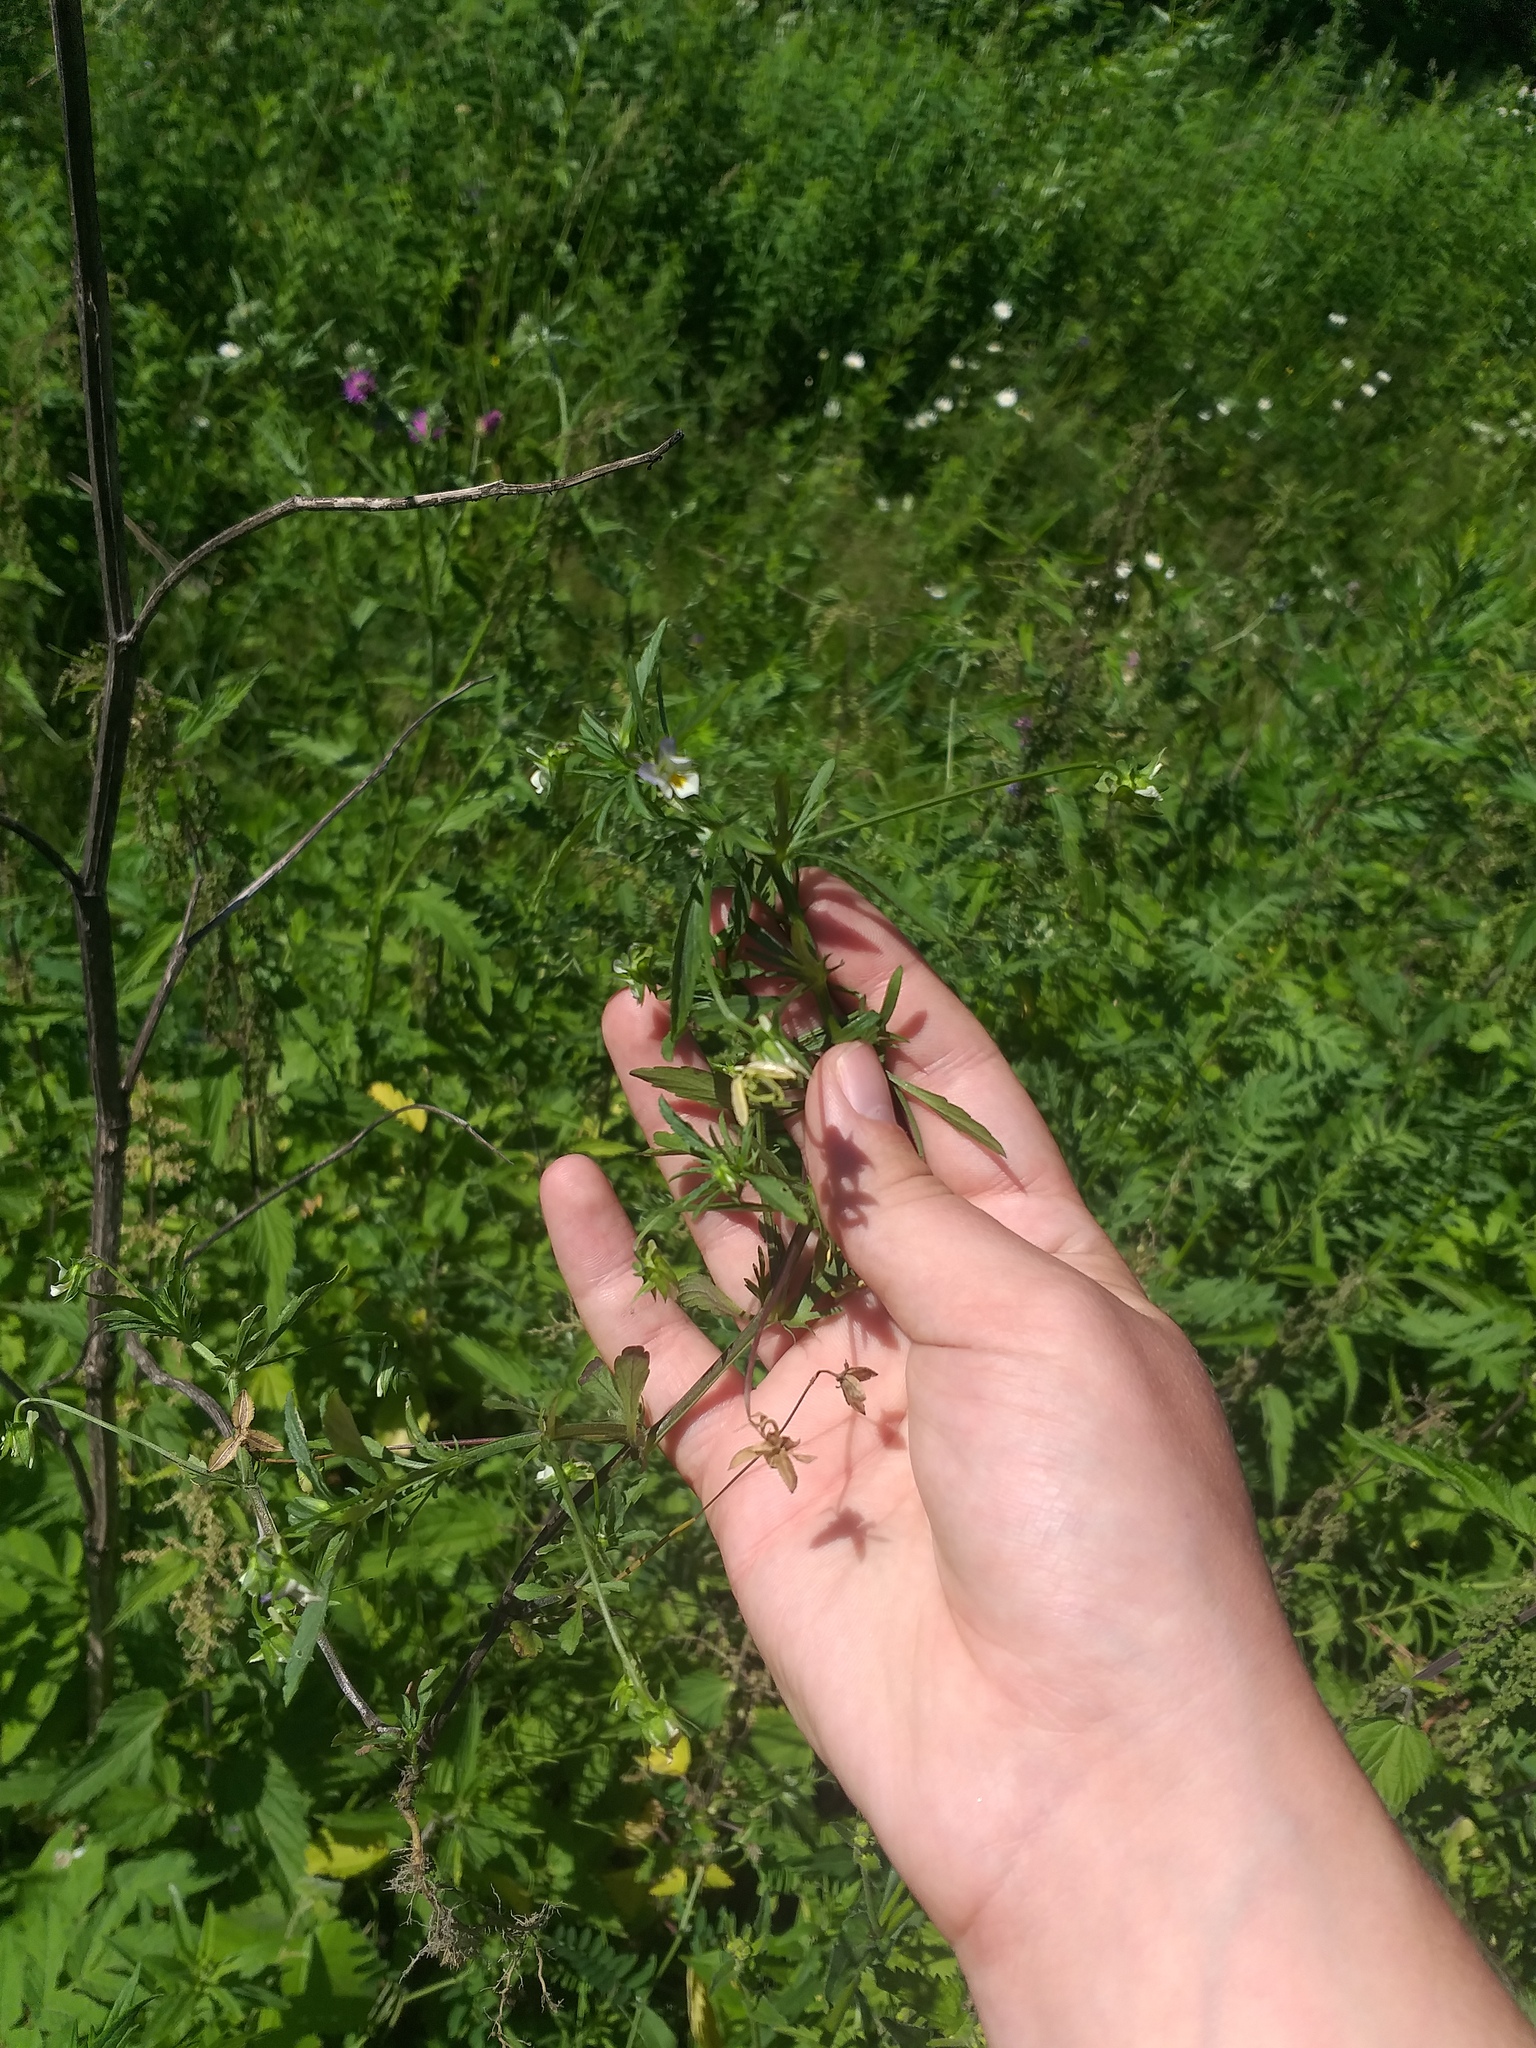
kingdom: Plantae
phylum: Tracheophyta
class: Magnoliopsida
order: Malpighiales
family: Violaceae
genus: Viola
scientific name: Viola arvensis
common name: Field pansy
